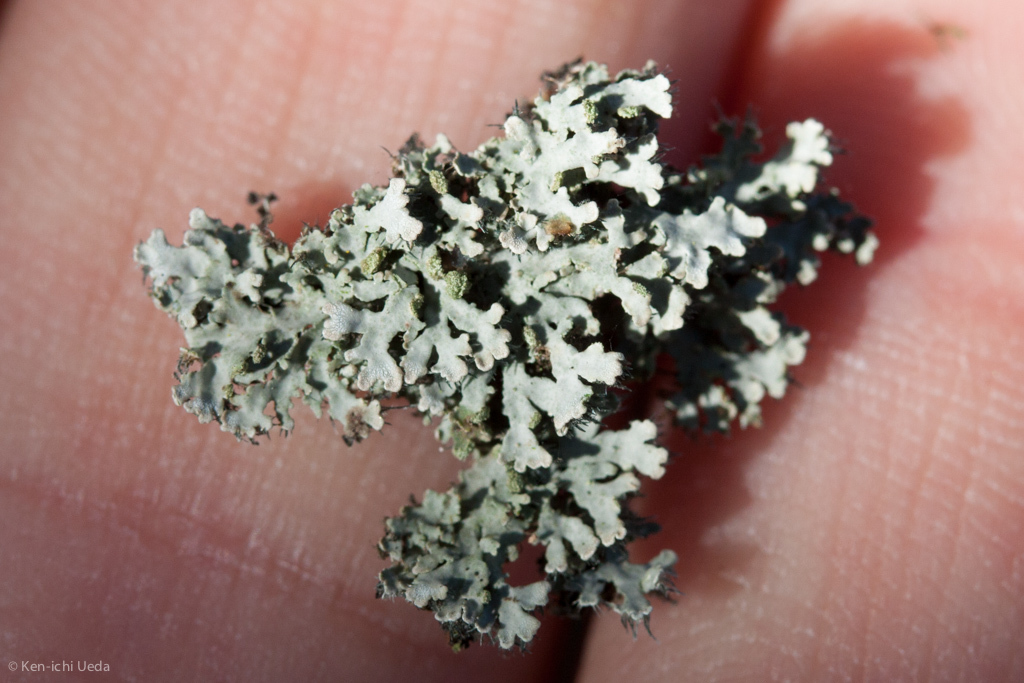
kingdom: Fungi
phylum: Ascomycota
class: Lecanoromycetes
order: Caliciales
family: Physciaceae
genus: Physconia
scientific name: Physconia perisidiosa
